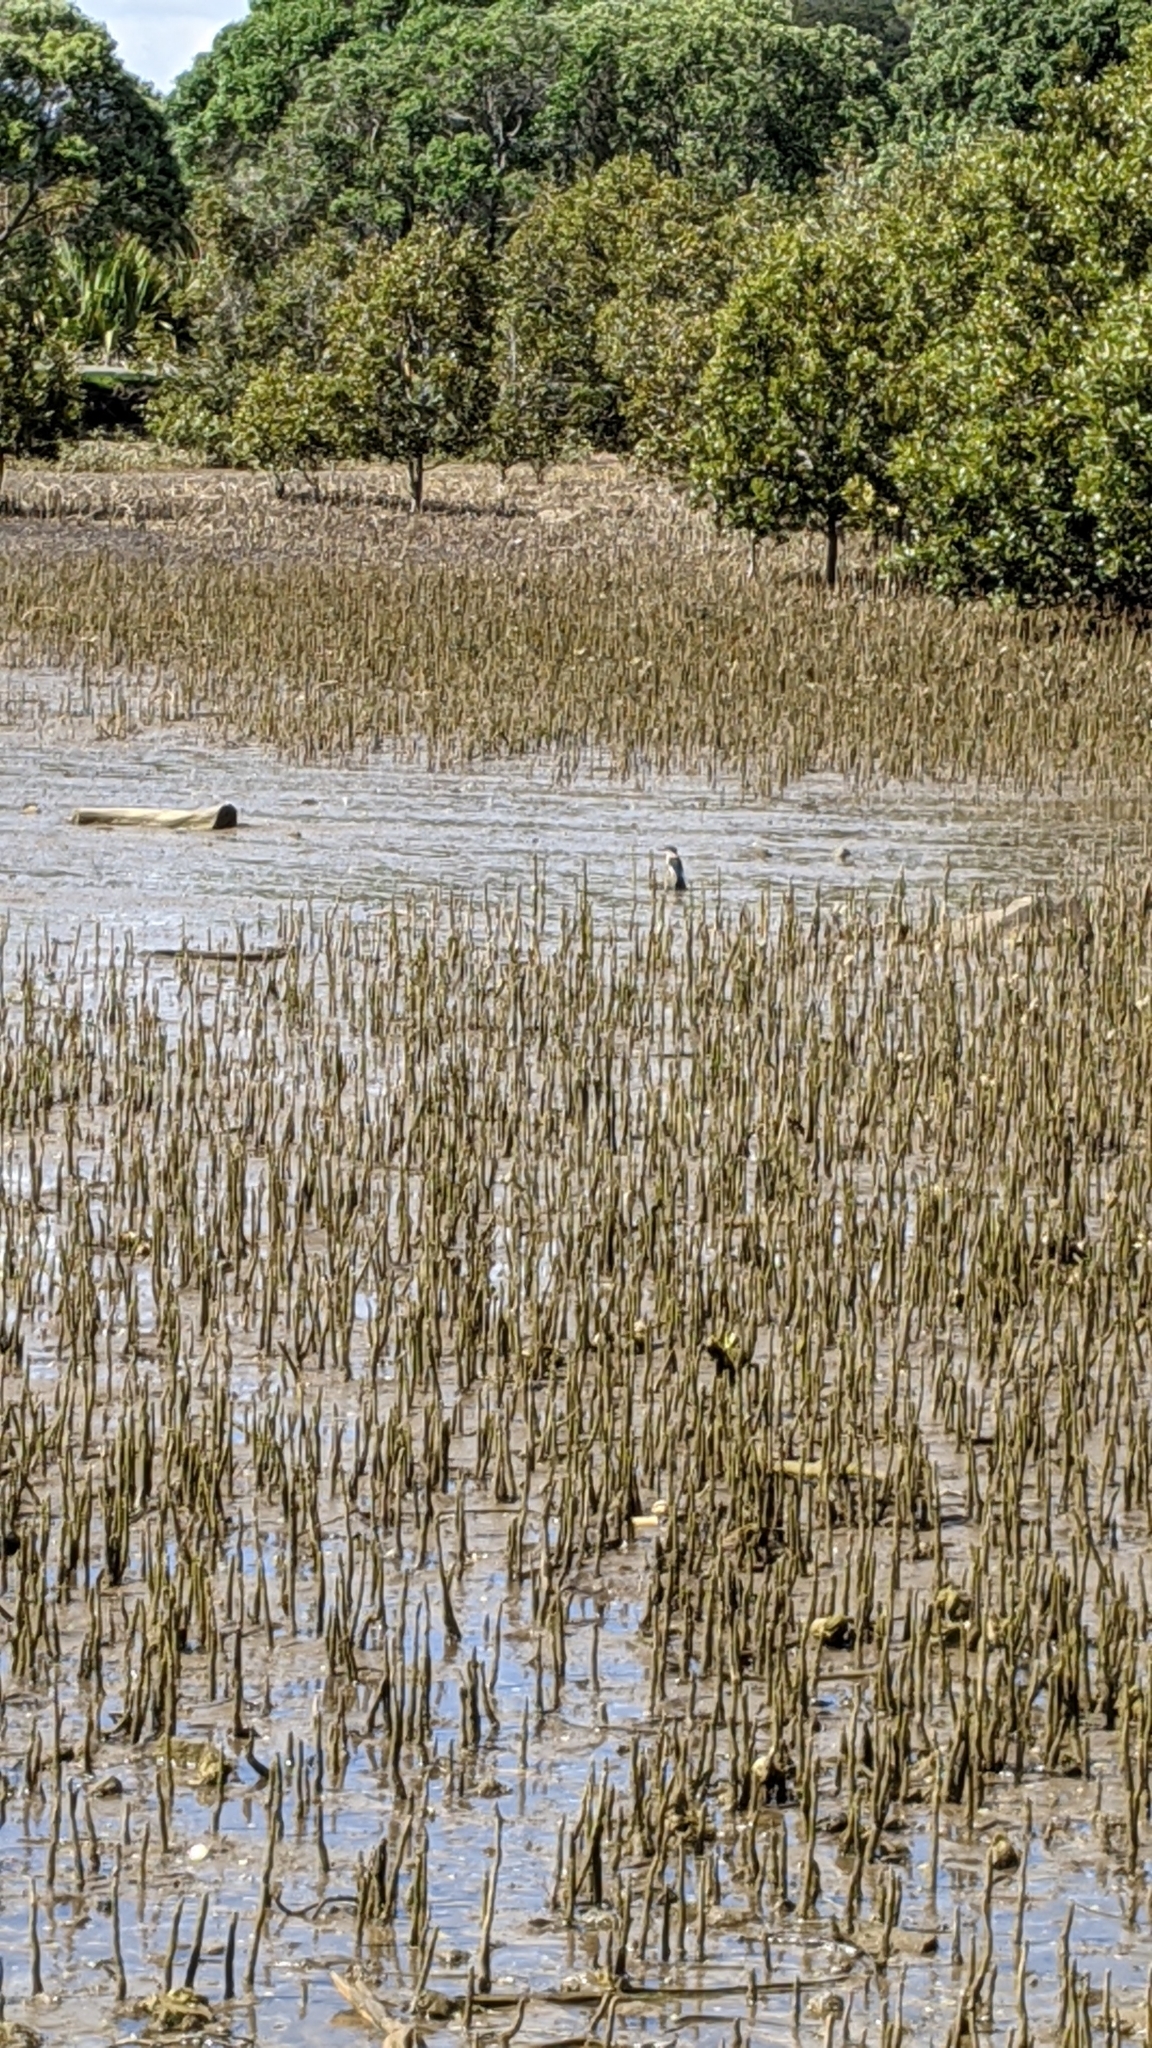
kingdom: Animalia
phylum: Chordata
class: Aves
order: Coraciiformes
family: Alcedinidae
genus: Todiramphus
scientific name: Todiramphus sanctus
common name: Sacred kingfisher
